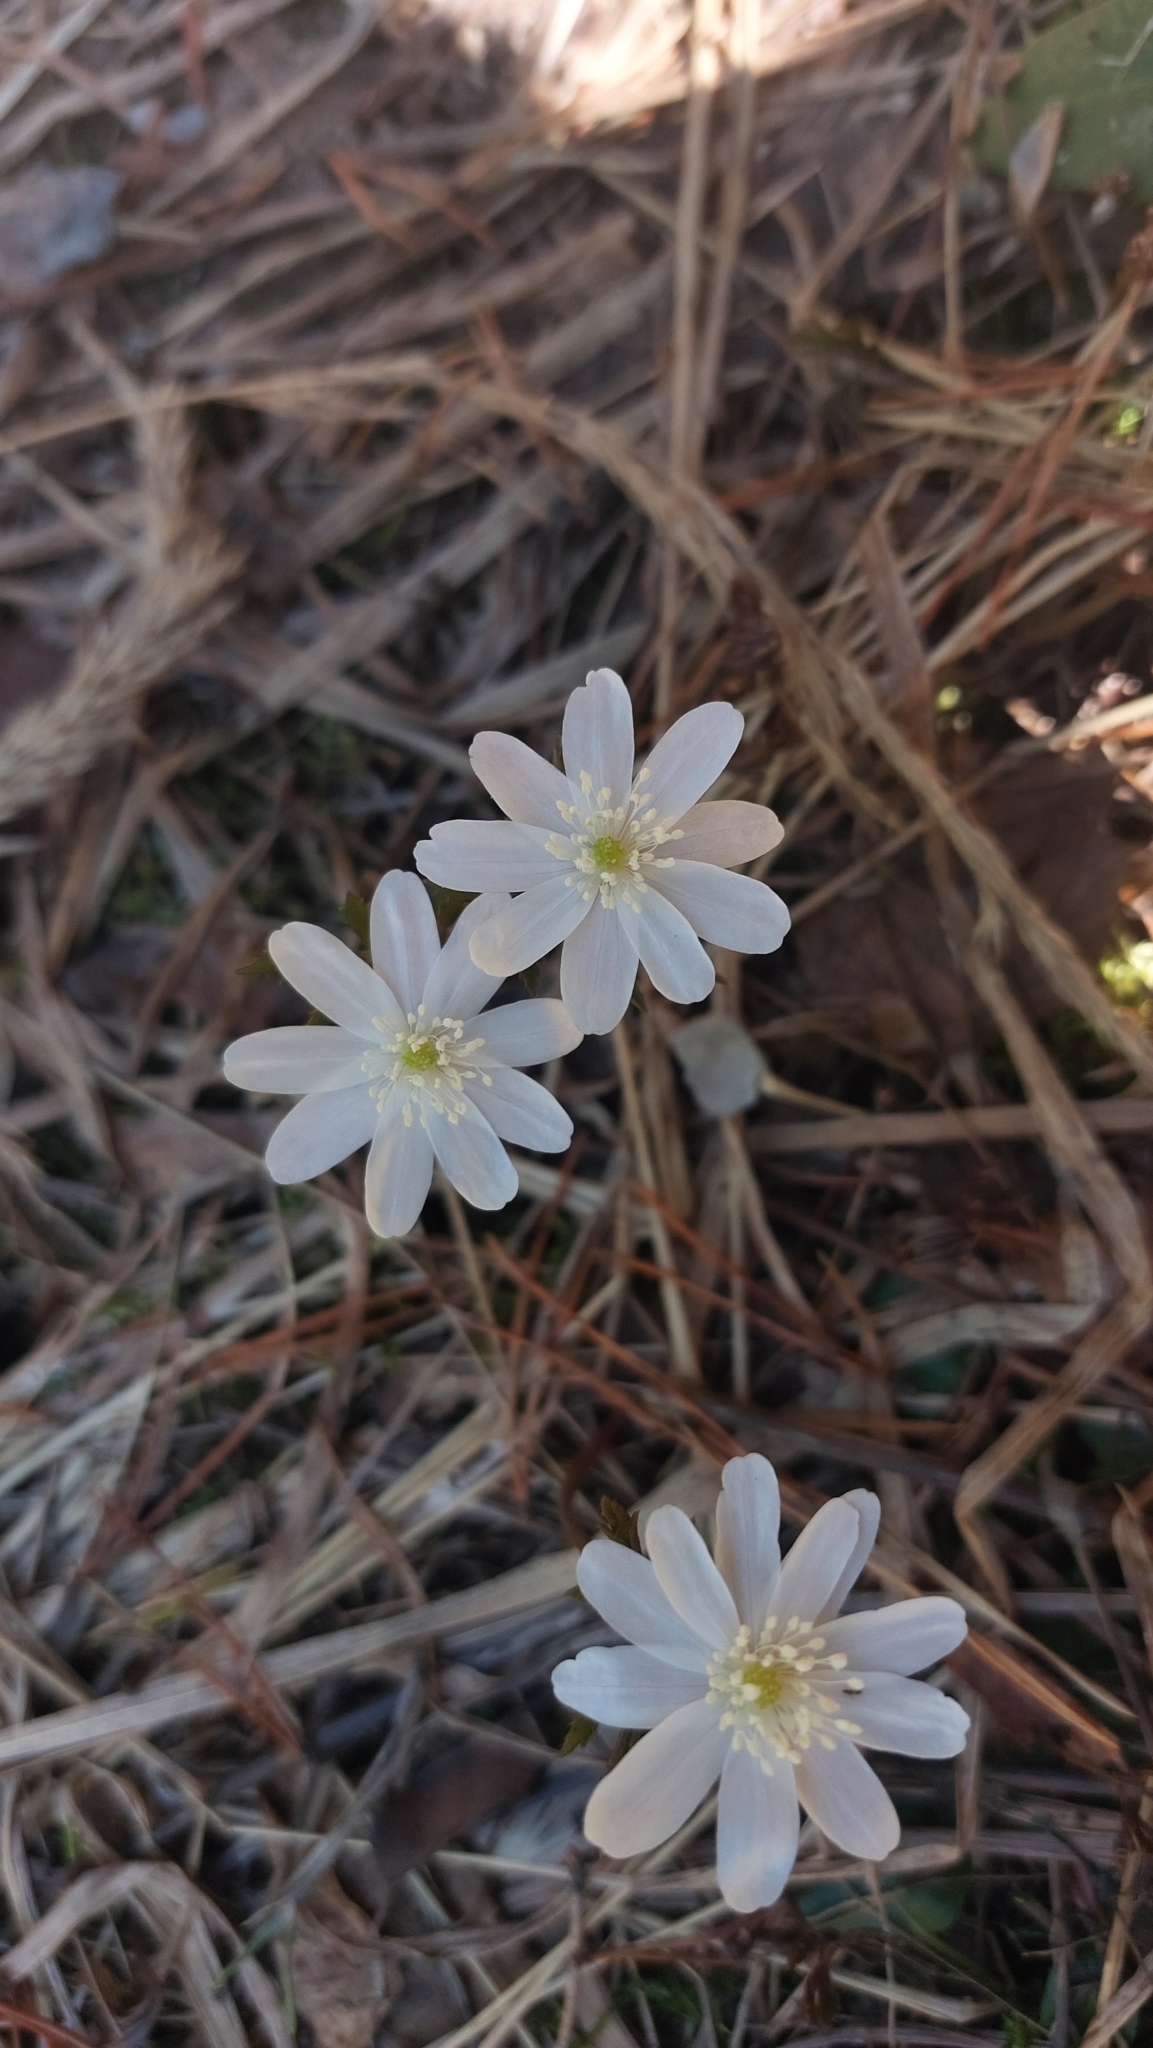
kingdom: Plantae
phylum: Tracheophyta
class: Magnoliopsida
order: Ranunculales
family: Ranunculaceae
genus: Anemone
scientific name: Anemone altaica
